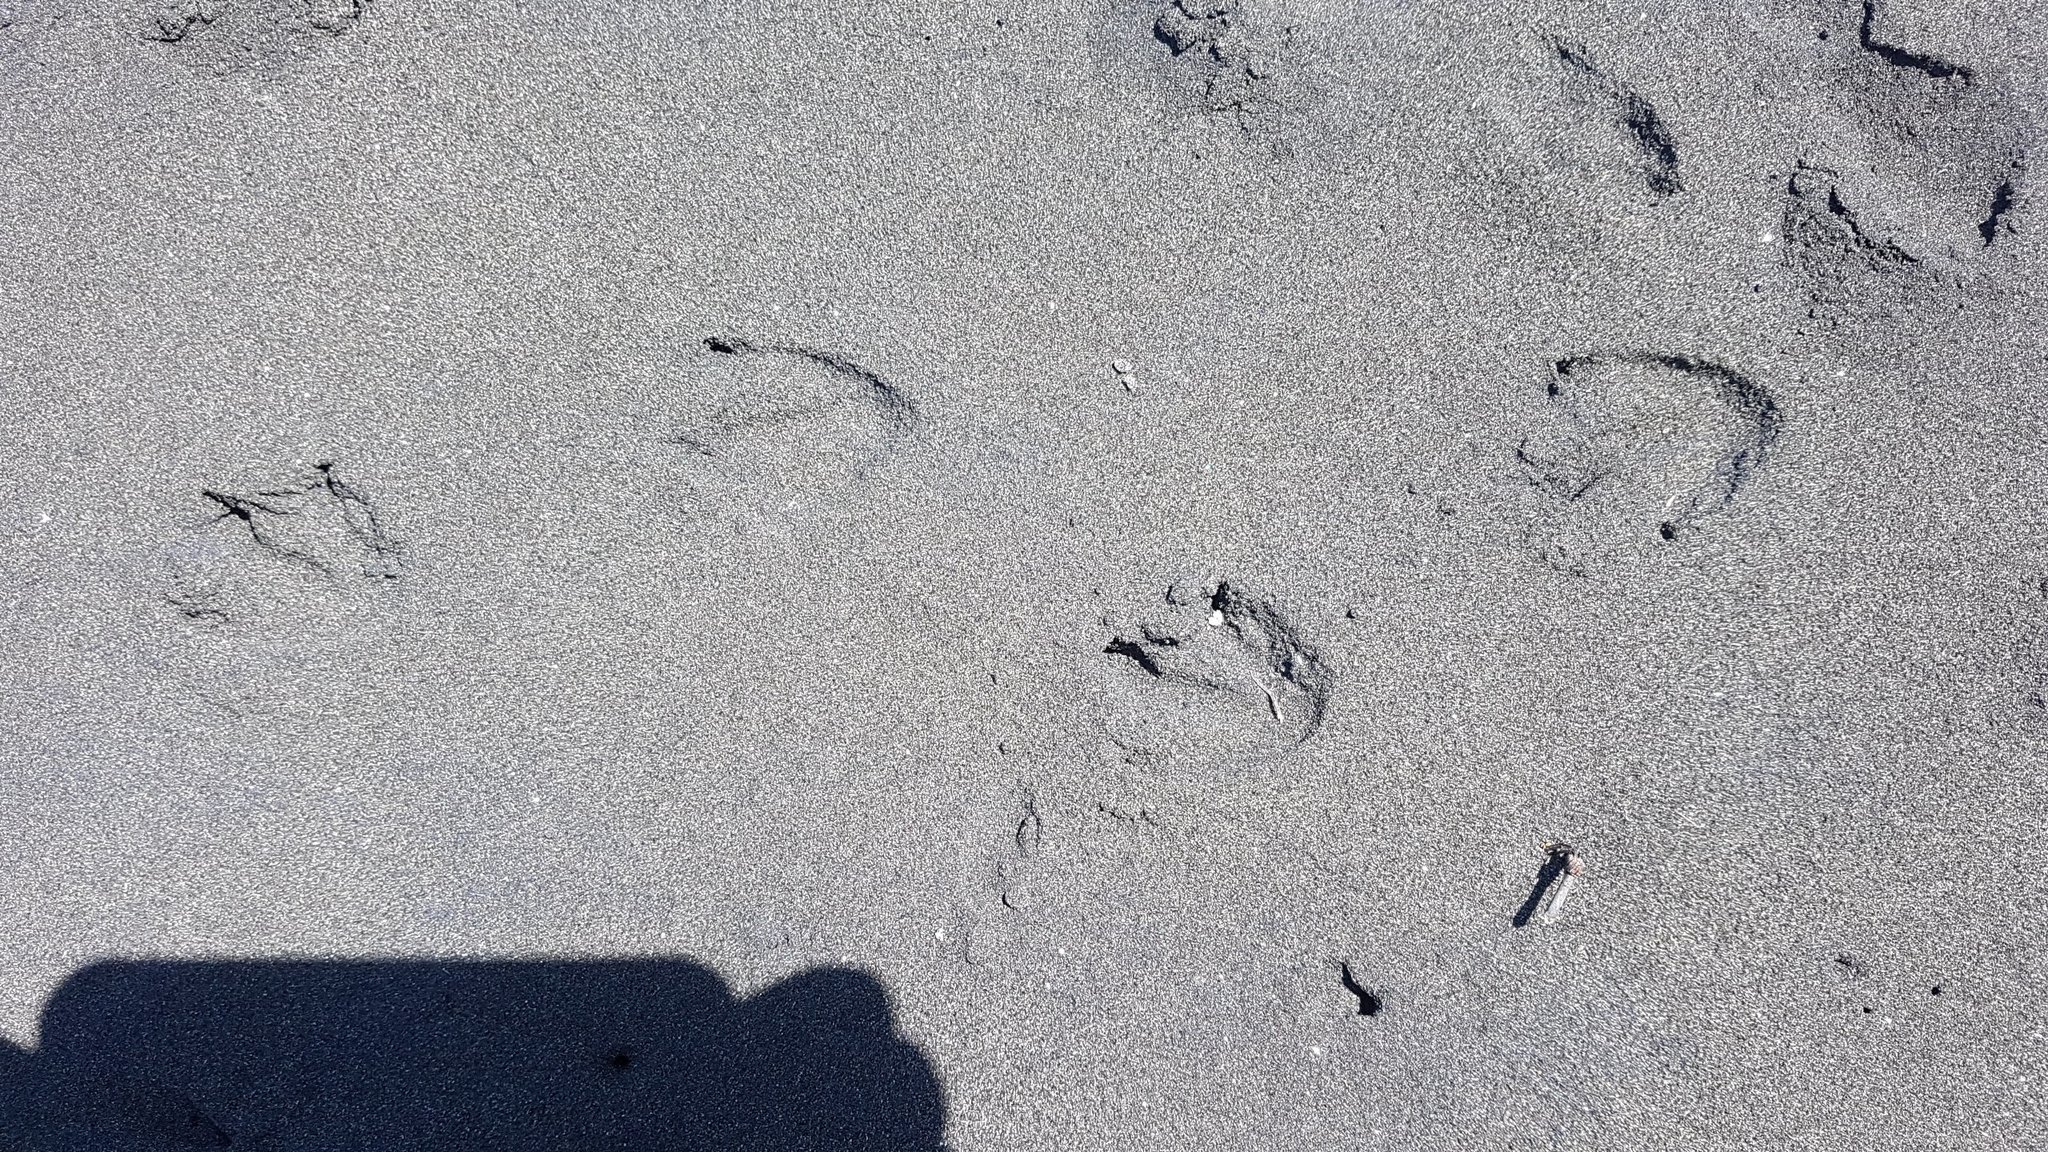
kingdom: Animalia
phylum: Chordata
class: Aves
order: Sphenisciformes
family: Spheniscidae
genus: Eudyptula
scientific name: Eudyptula minor
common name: Little penguin
